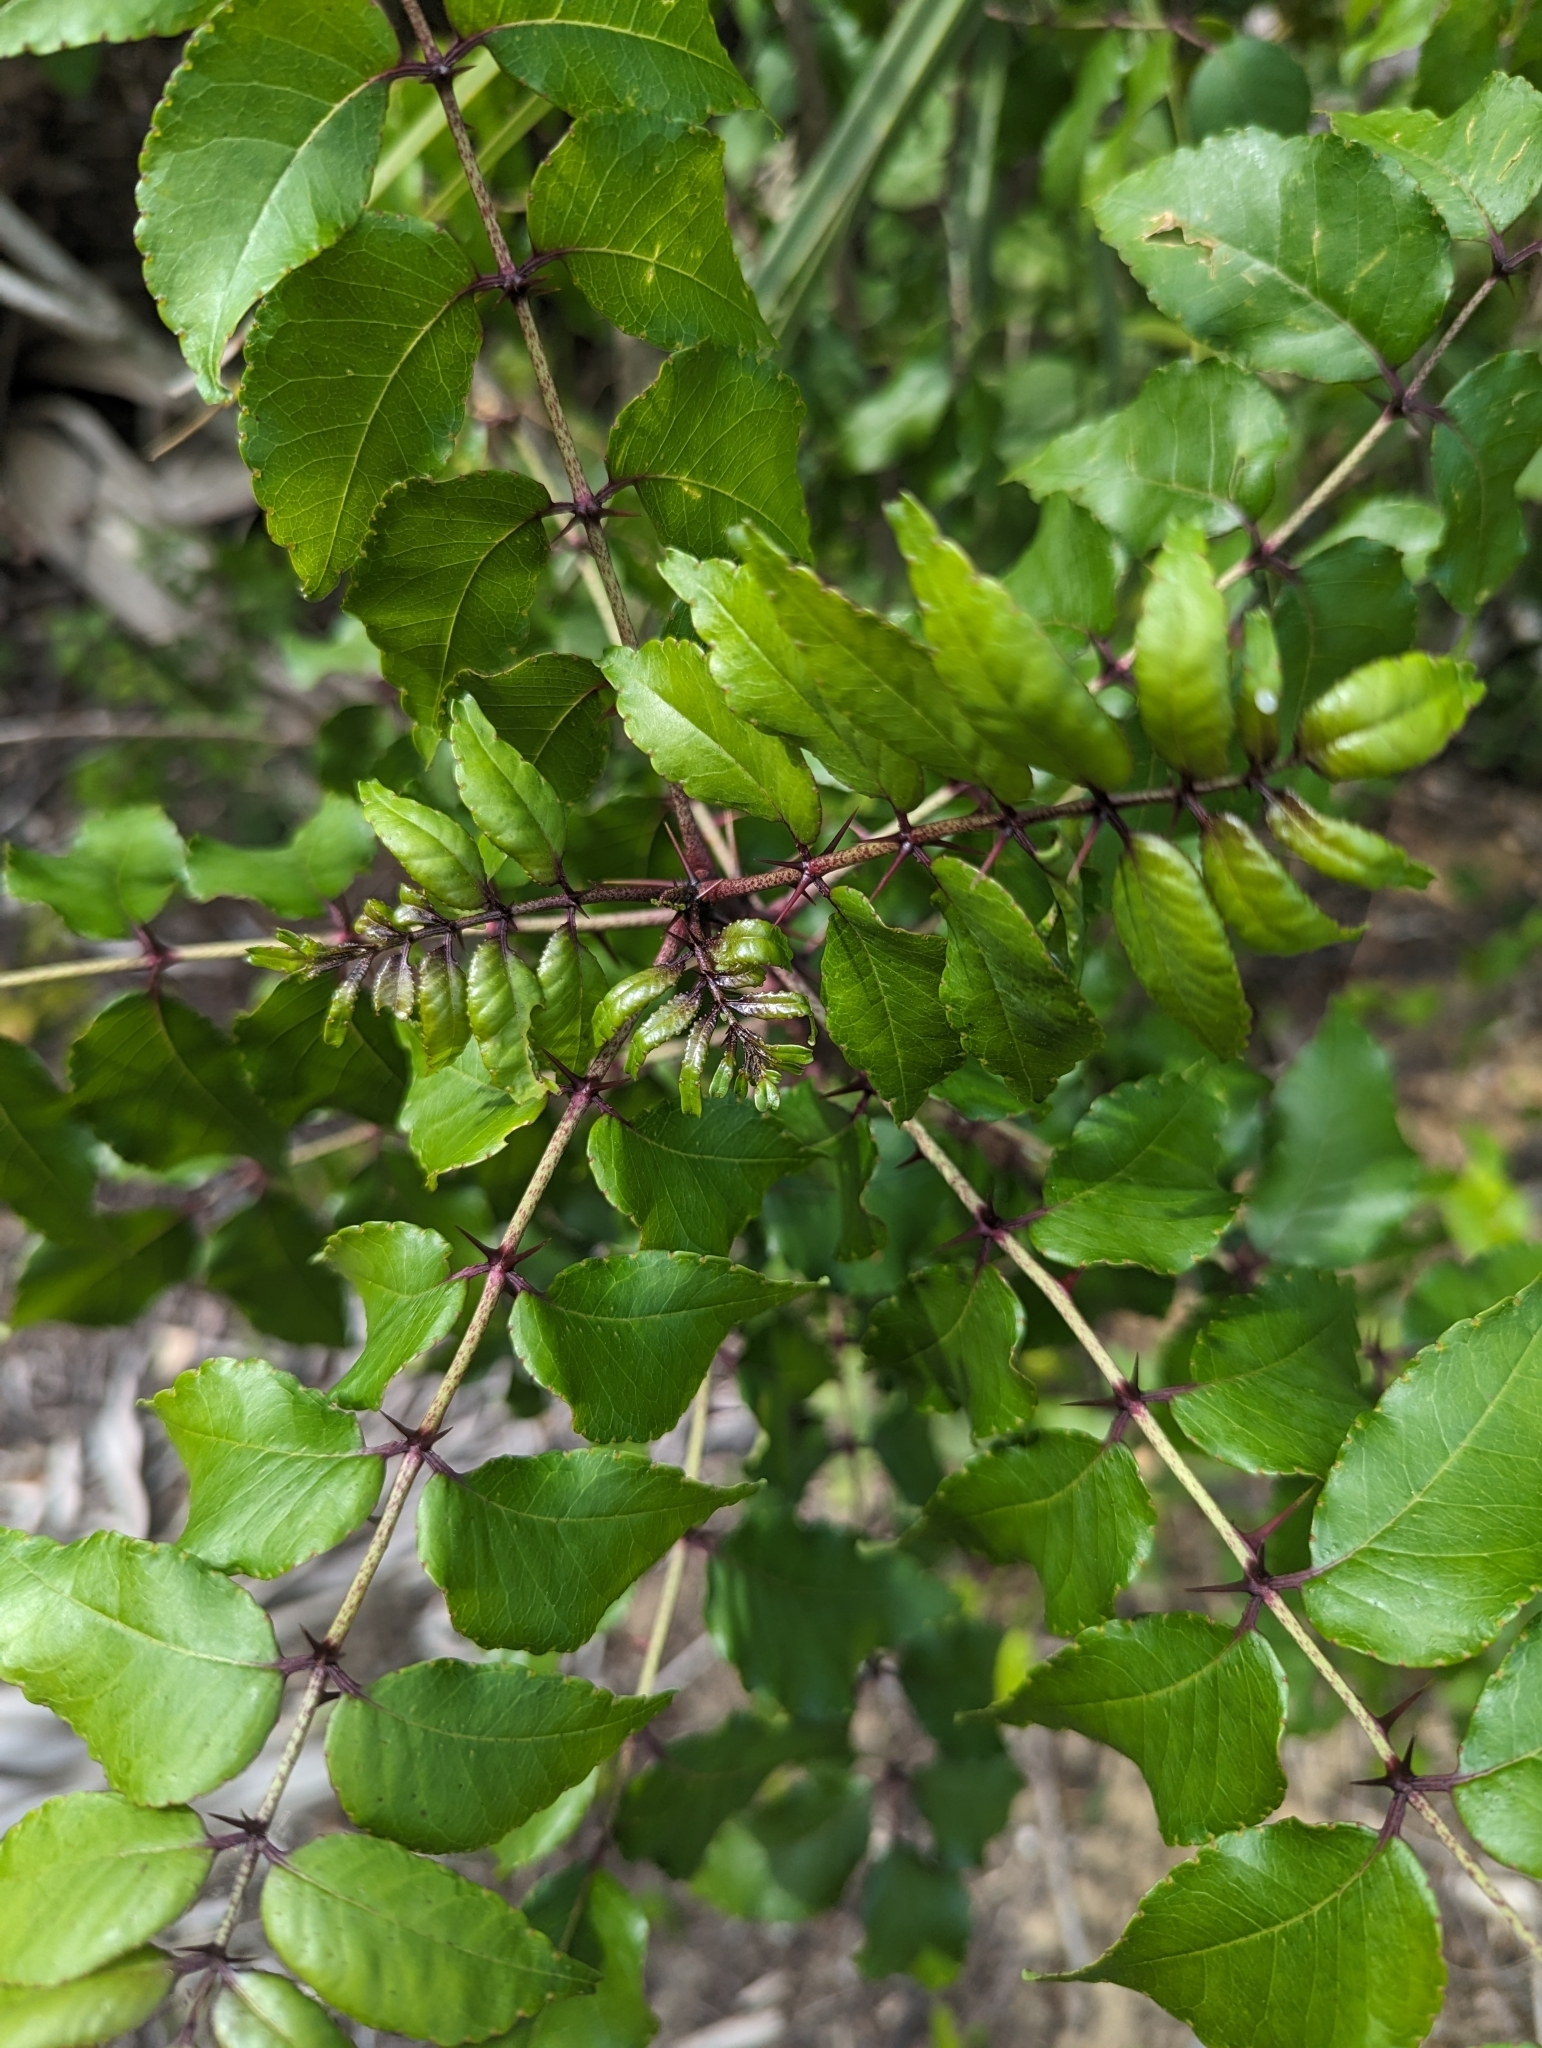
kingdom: Plantae
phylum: Tracheophyta
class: Magnoliopsida
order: Sapindales
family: Rutaceae
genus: Zanthoxylum
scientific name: Zanthoxylum clava-herculis
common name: Hercules'-club
